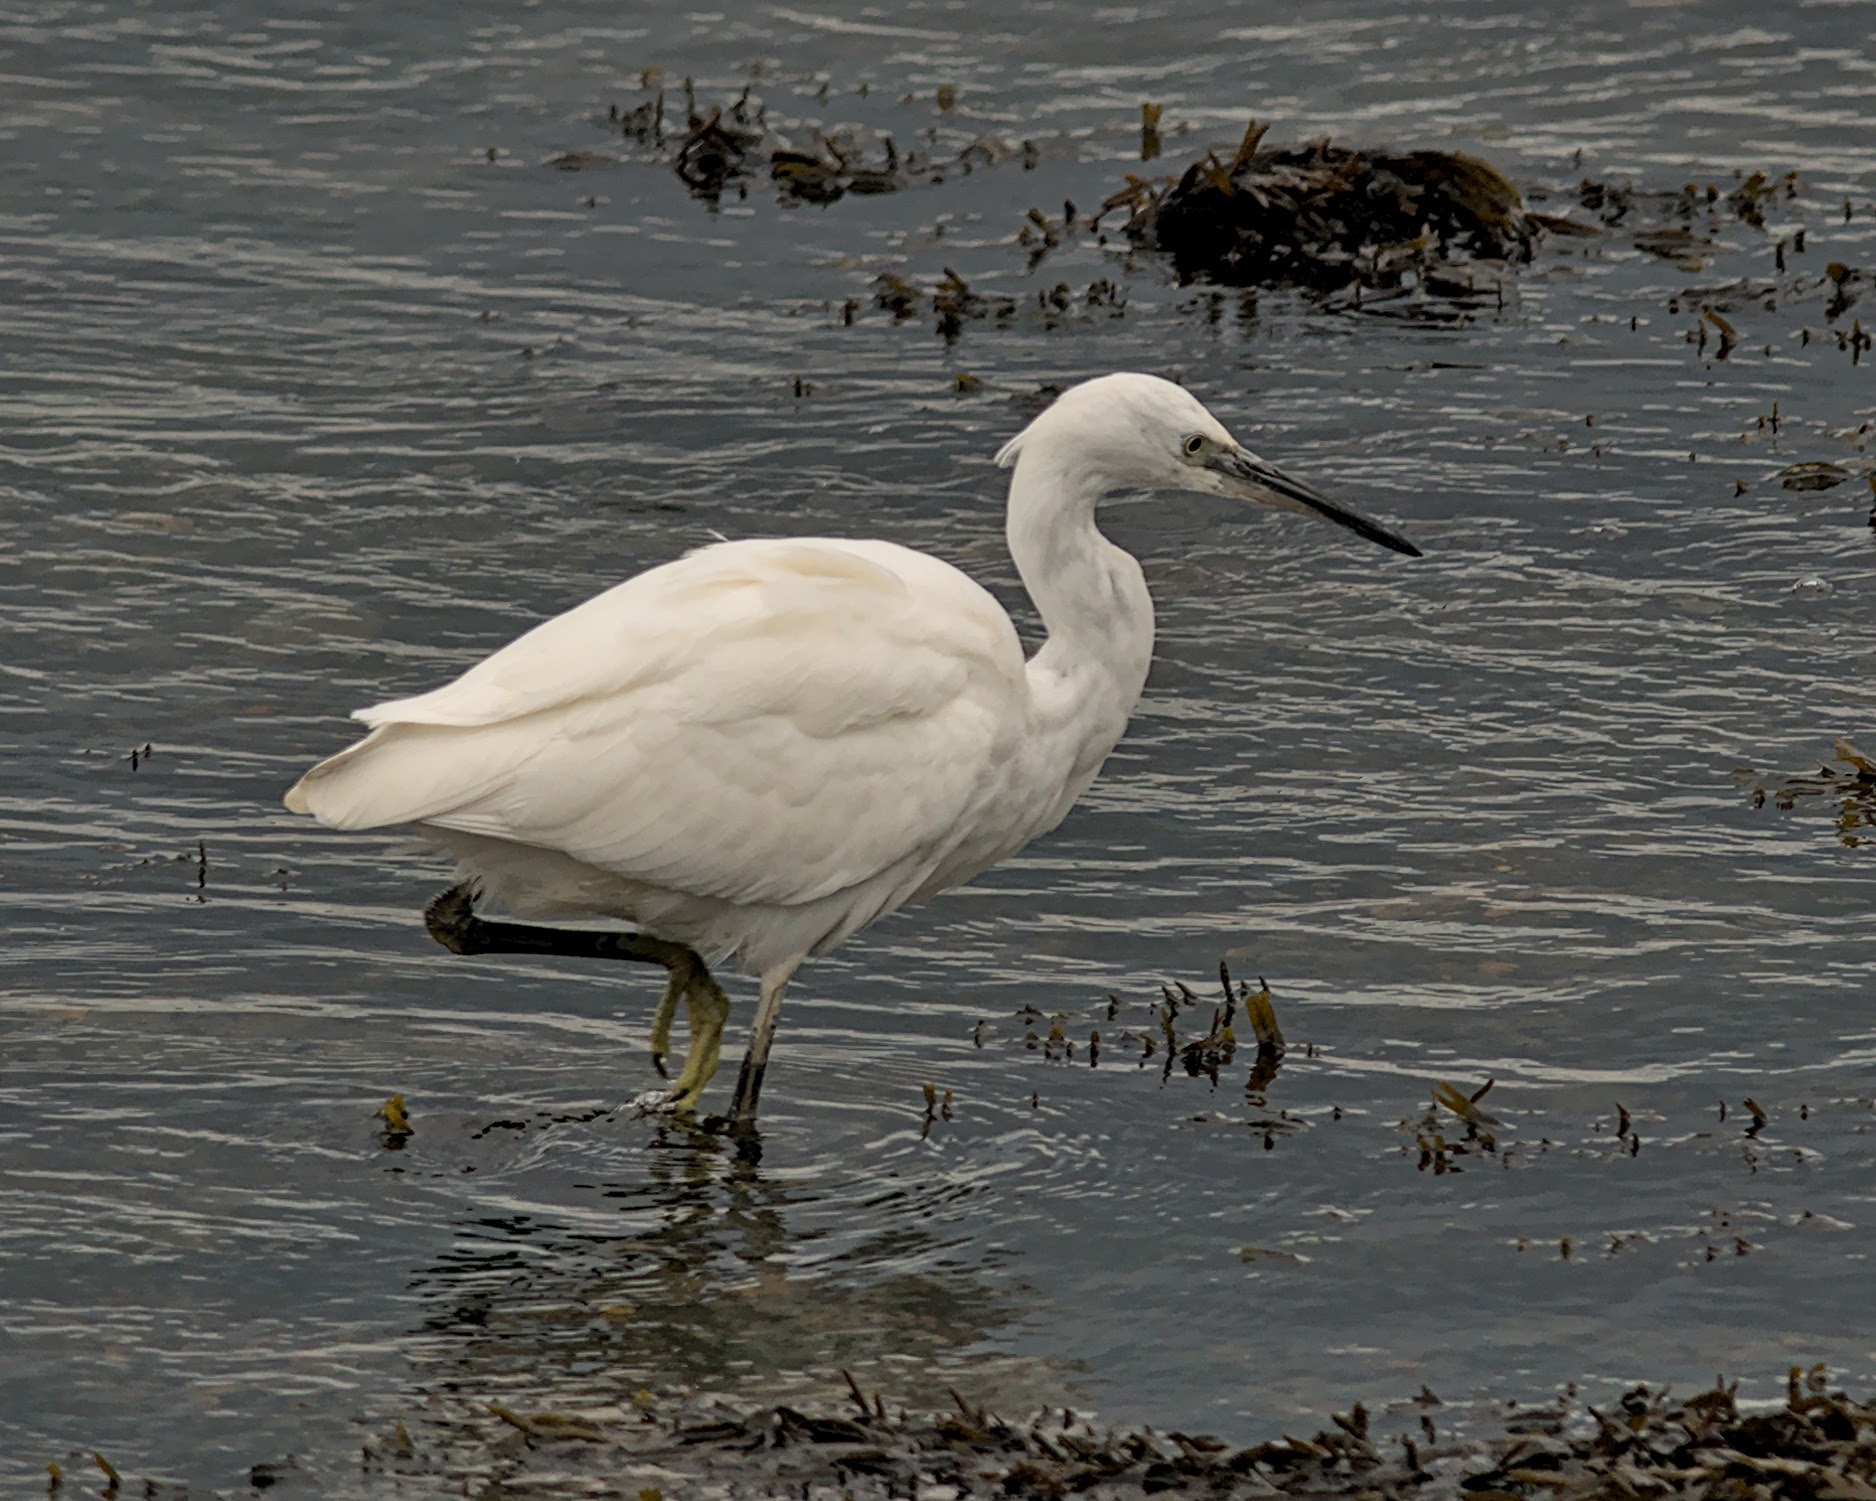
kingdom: Animalia
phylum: Chordata
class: Aves
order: Pelecaniformes
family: Ardeidae
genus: Egretta
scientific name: Egretta garzetta
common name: Little egret
